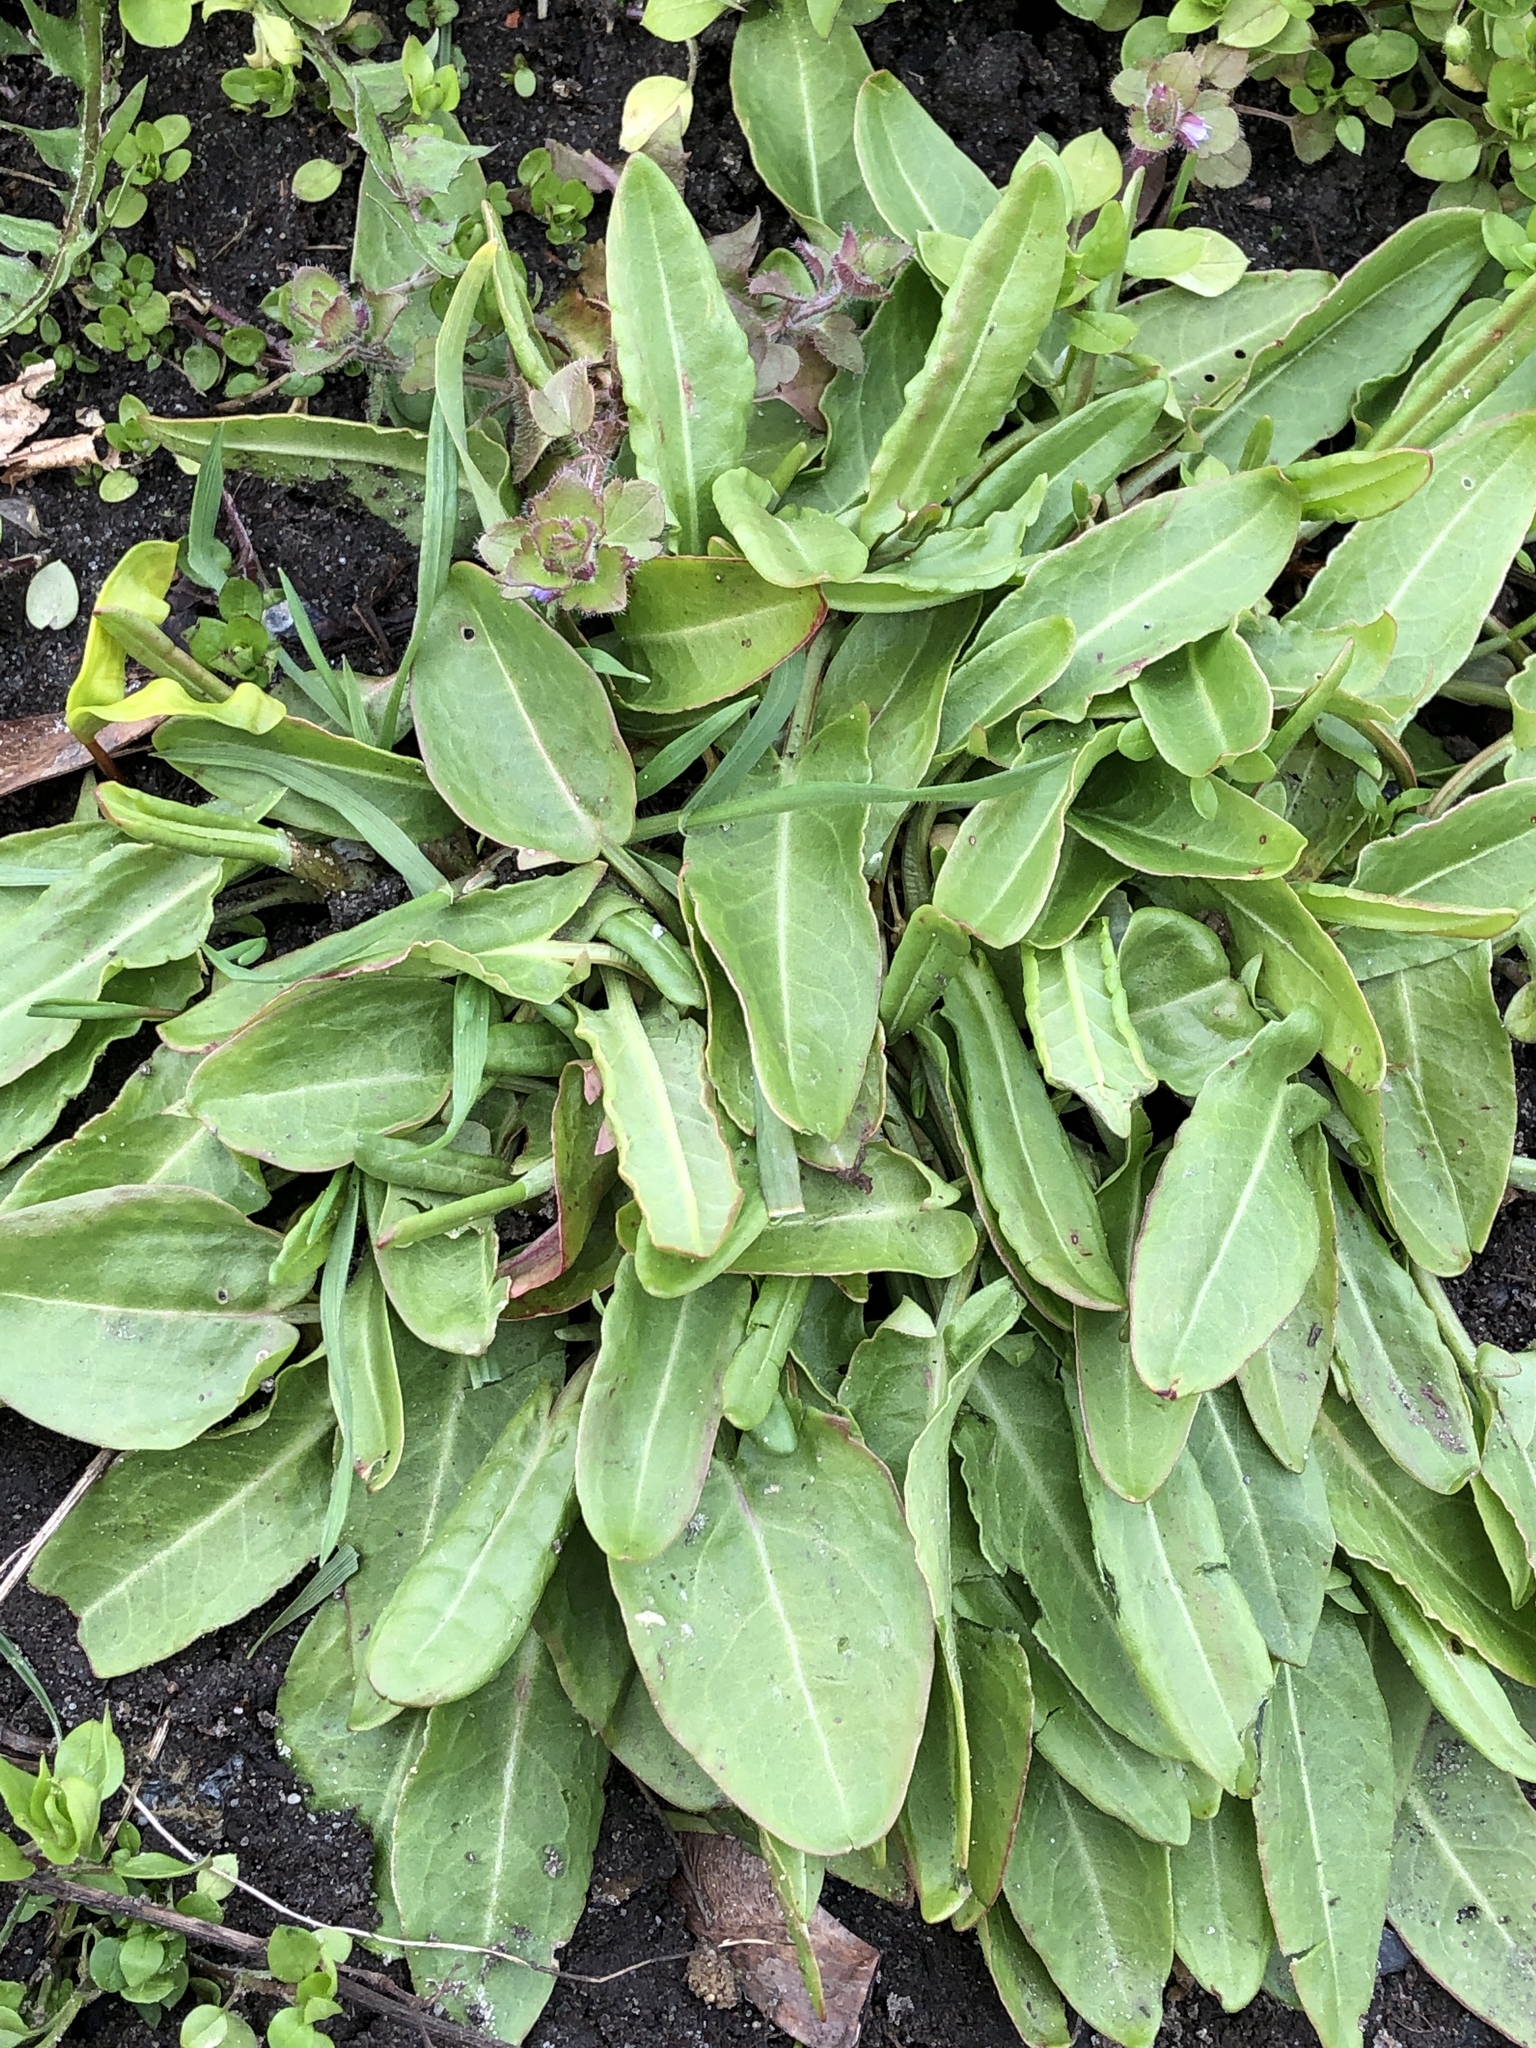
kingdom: Plantae
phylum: Tracheophyta
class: Magnoliopsida
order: Caryophyllales
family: Polygonaceae
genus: Rumex
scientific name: Rumex acetosa
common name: Garden sorrel
